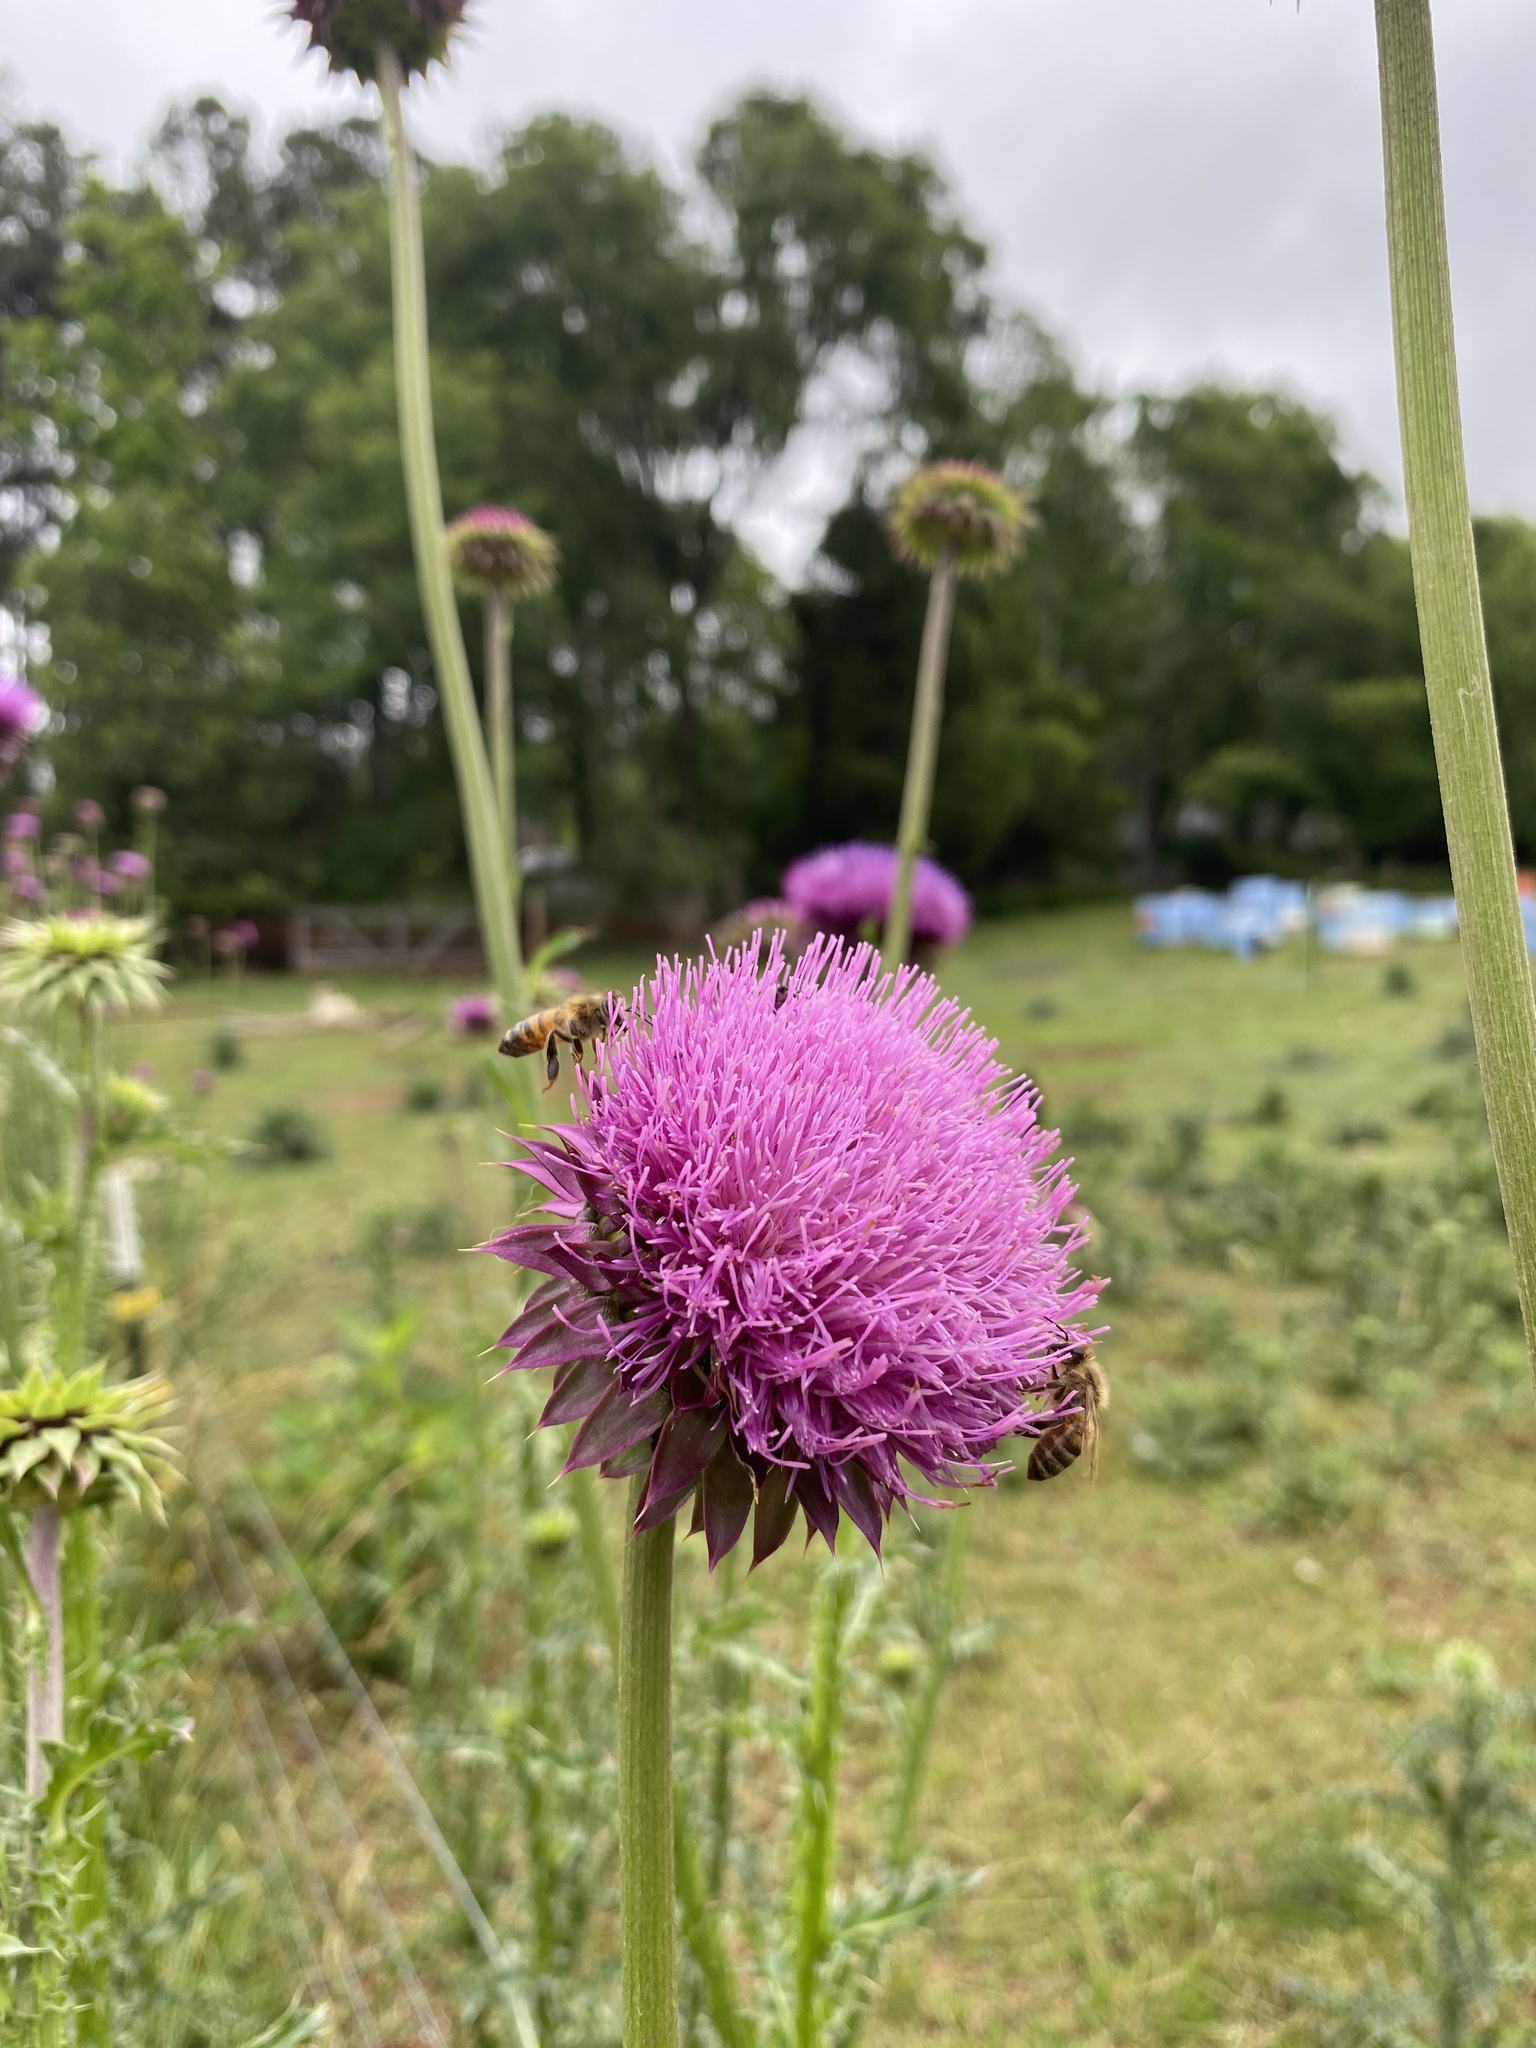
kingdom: Plantae
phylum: Tracheophyta
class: Magnoliopsida
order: Asterales
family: Asteraceae
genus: Carduus
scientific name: Carduus nutans
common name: Musk thistle
